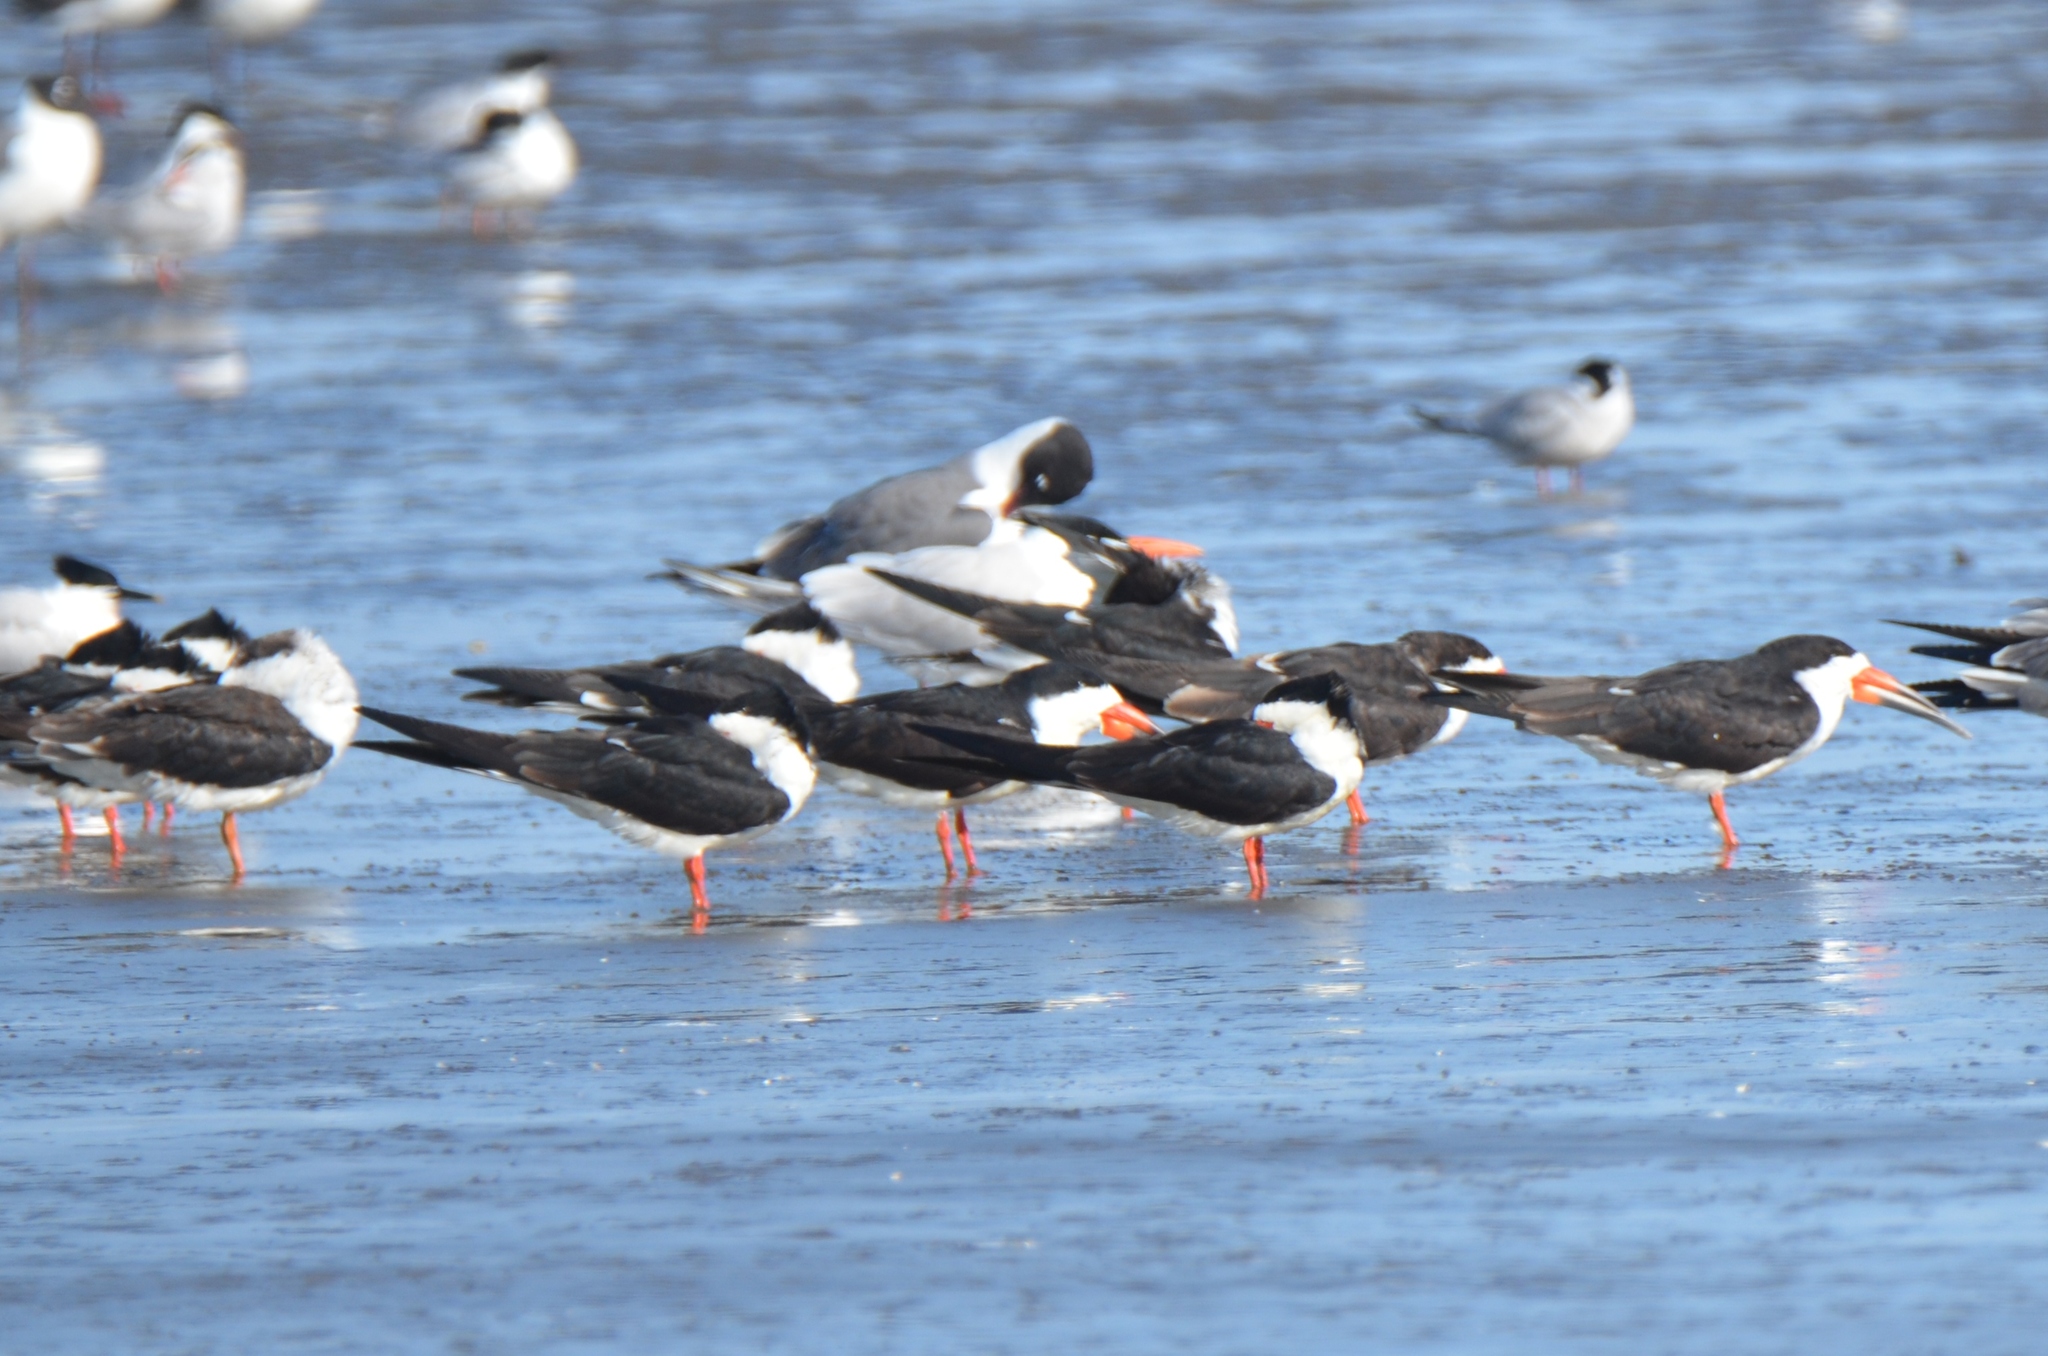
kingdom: Animalia
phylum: Chordata
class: Aves
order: Charadriiformes
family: Laridae
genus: Rynchops
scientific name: Rynchops niger
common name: Black skimmer
